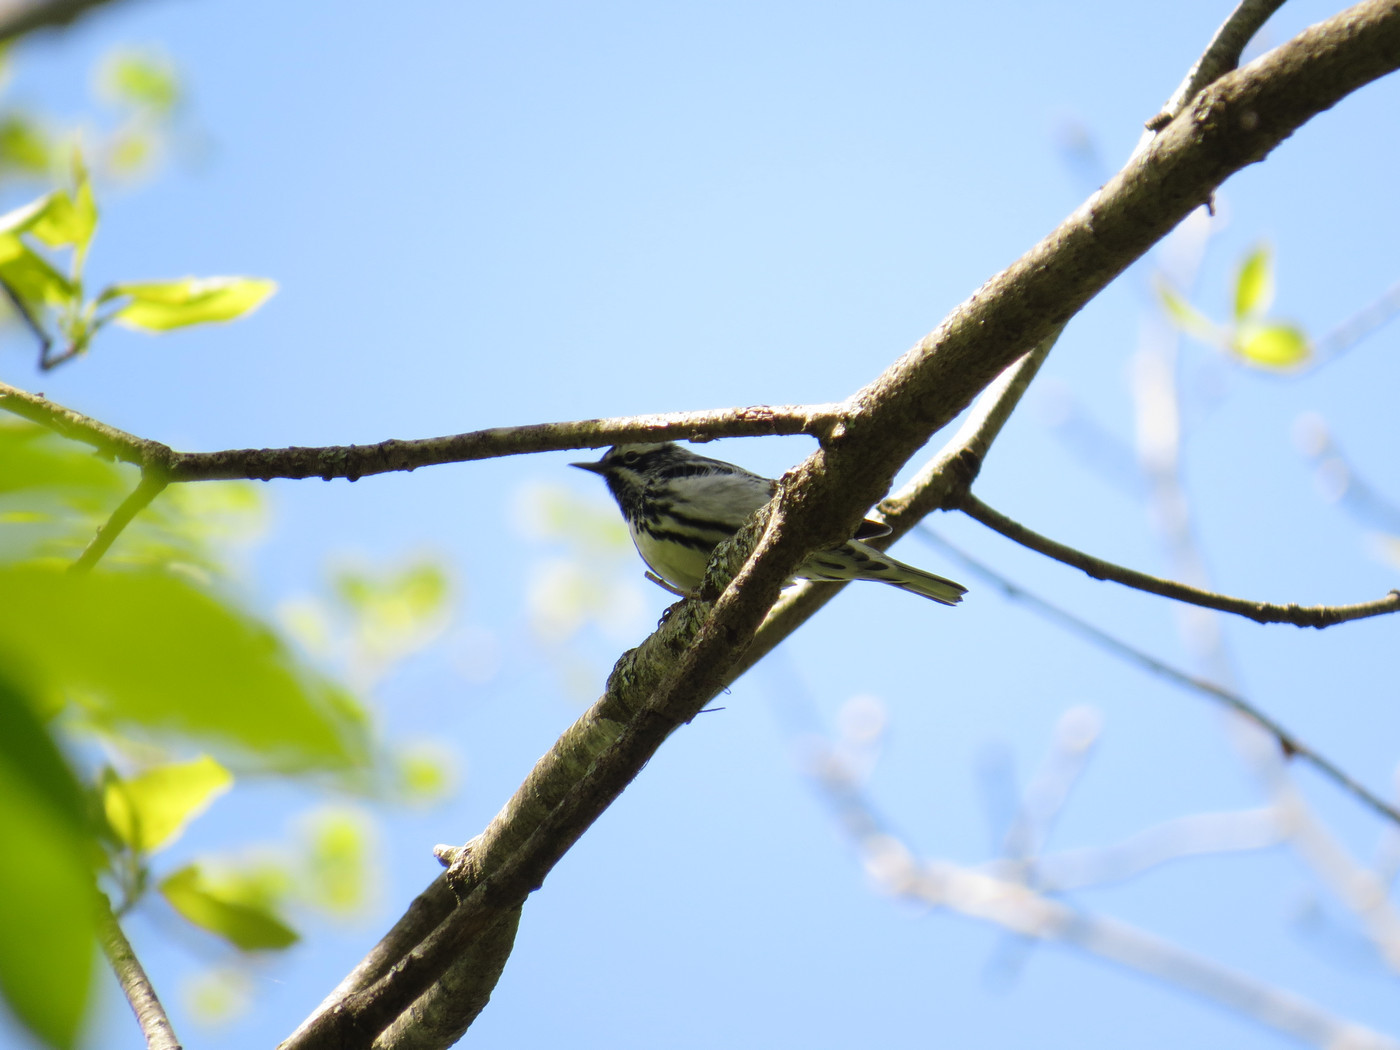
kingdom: Animalia
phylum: Chordata
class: Aves
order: Passeriformes
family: Parulidae
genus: Mniotilta
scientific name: Mniotilta varia
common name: Black-and-white warbler
